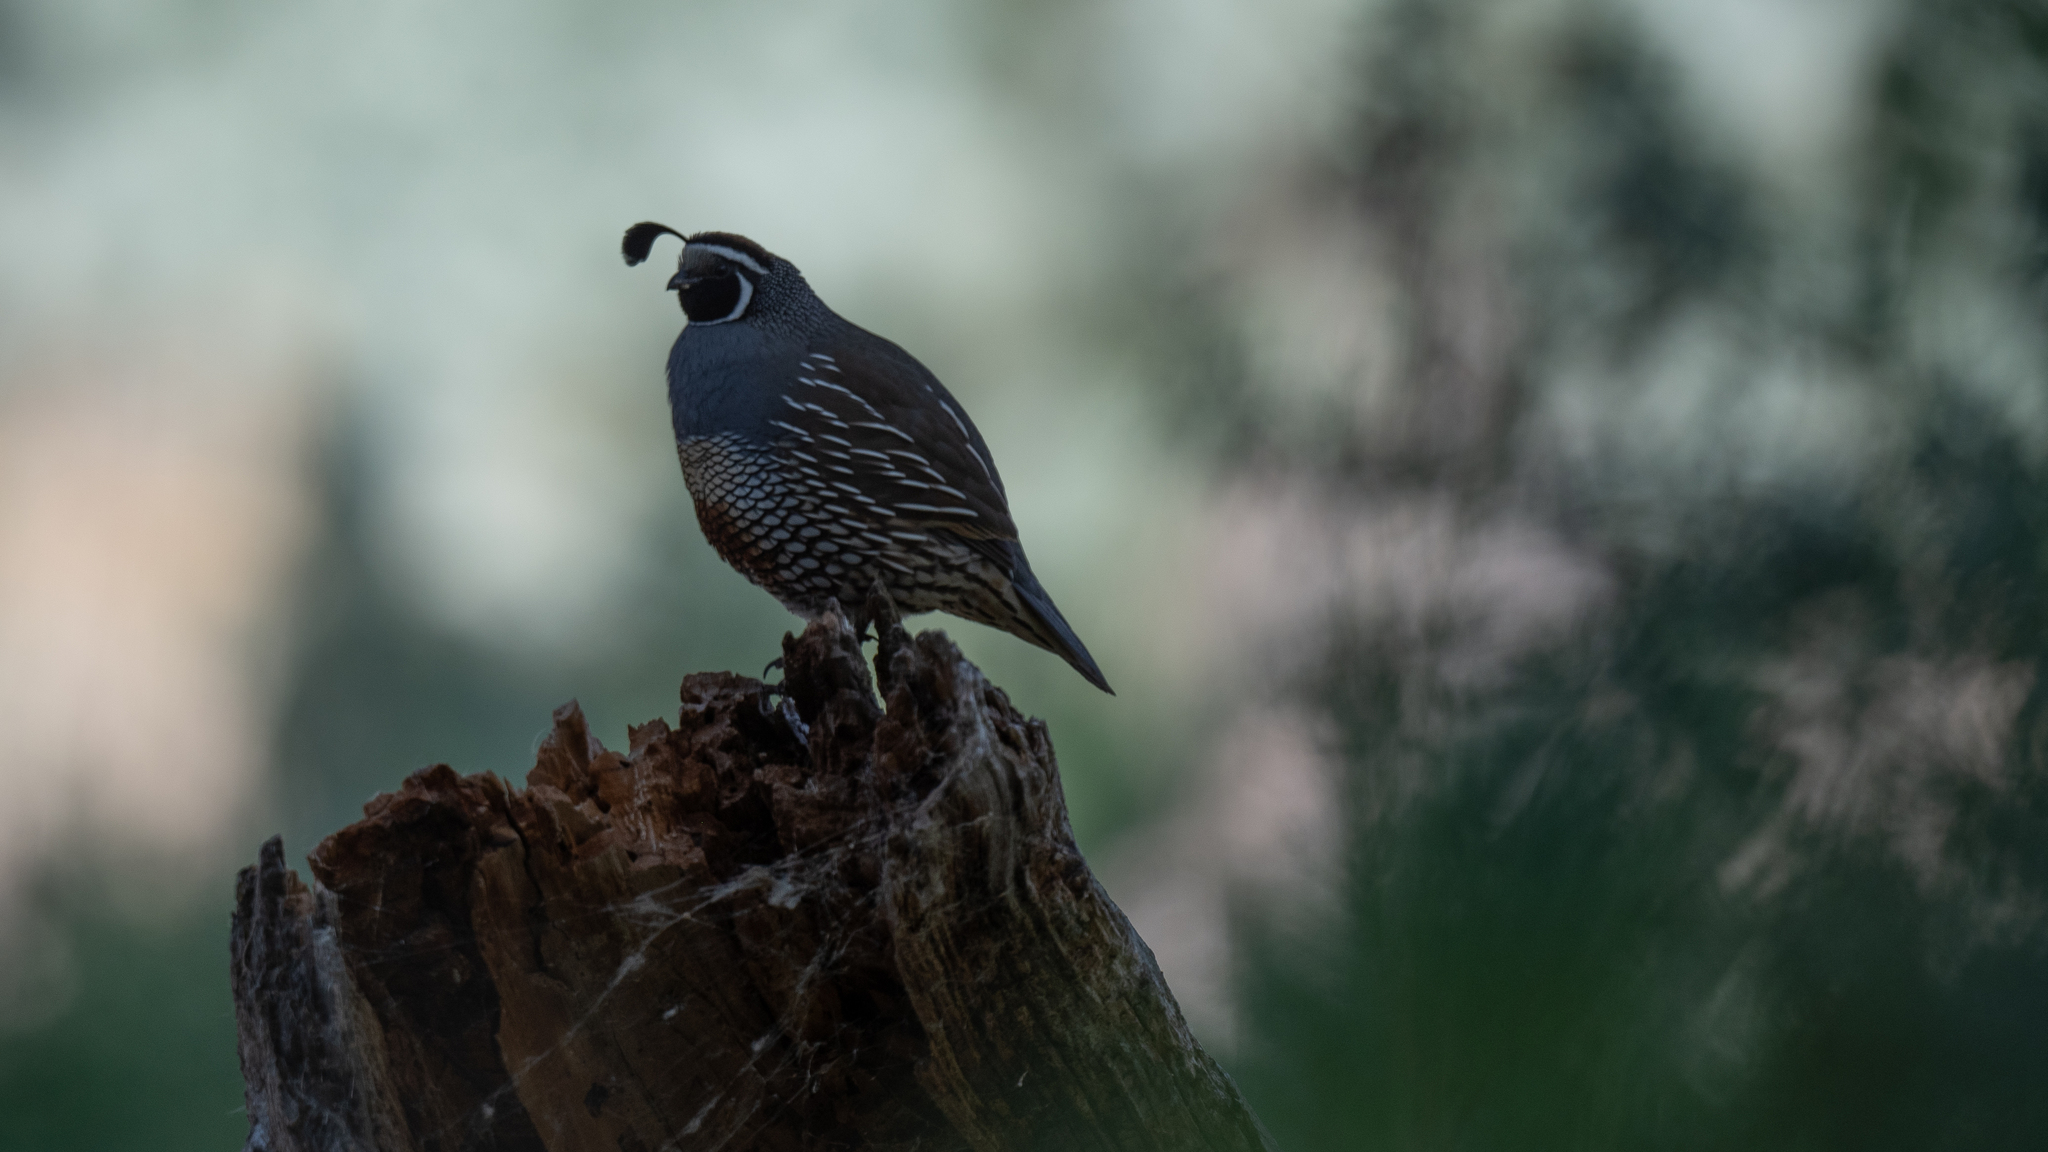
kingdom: Animalia
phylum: Chordata
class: Aves
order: Galliformes
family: Odontophoridae
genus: Callipepla
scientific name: Callipepla californica
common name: California quail
